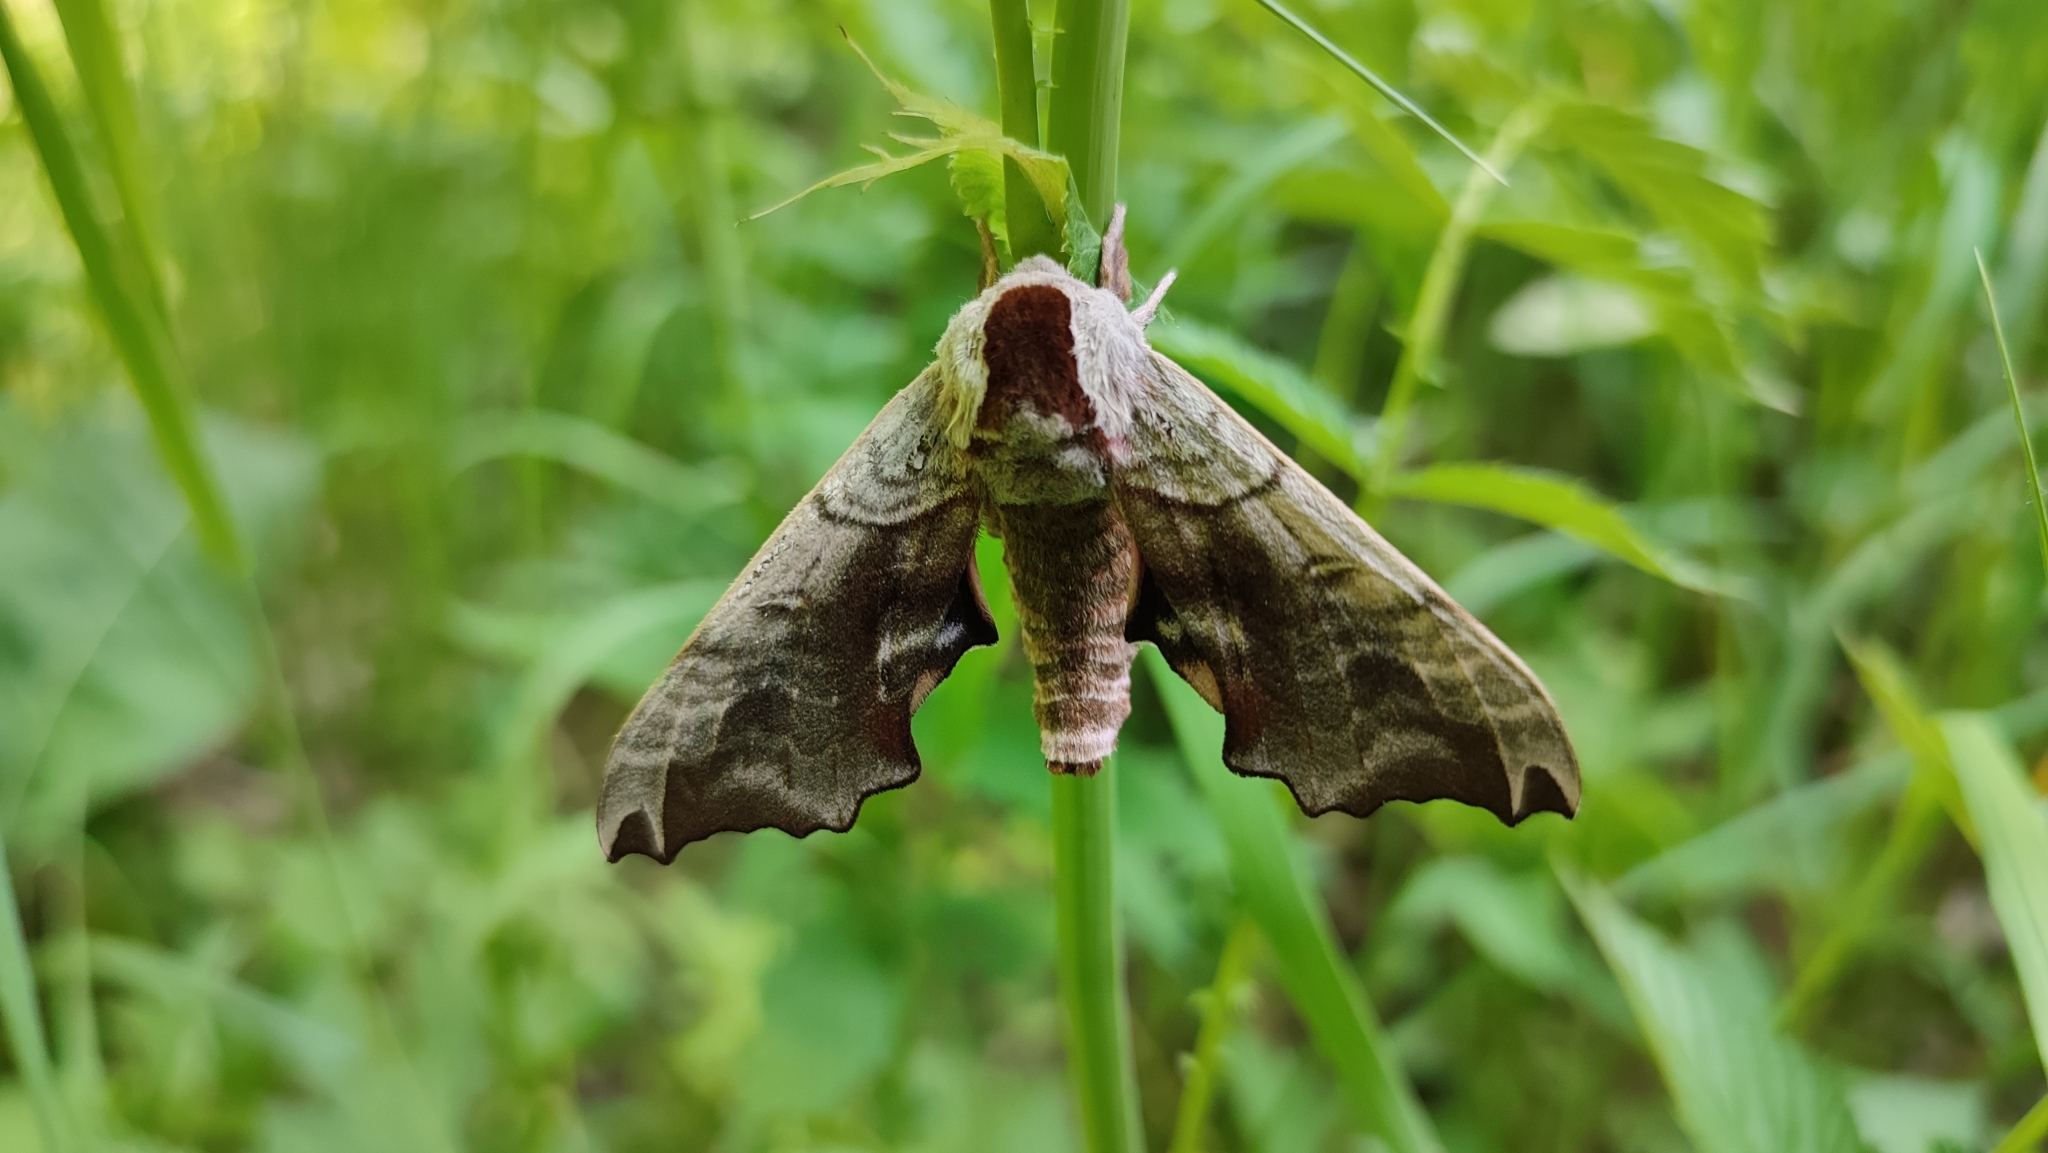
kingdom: Animalia
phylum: Arthropoda
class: Insecta
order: Lepidoptera
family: Sphingidae
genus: Smerinthus
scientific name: Smerinthus caecus
